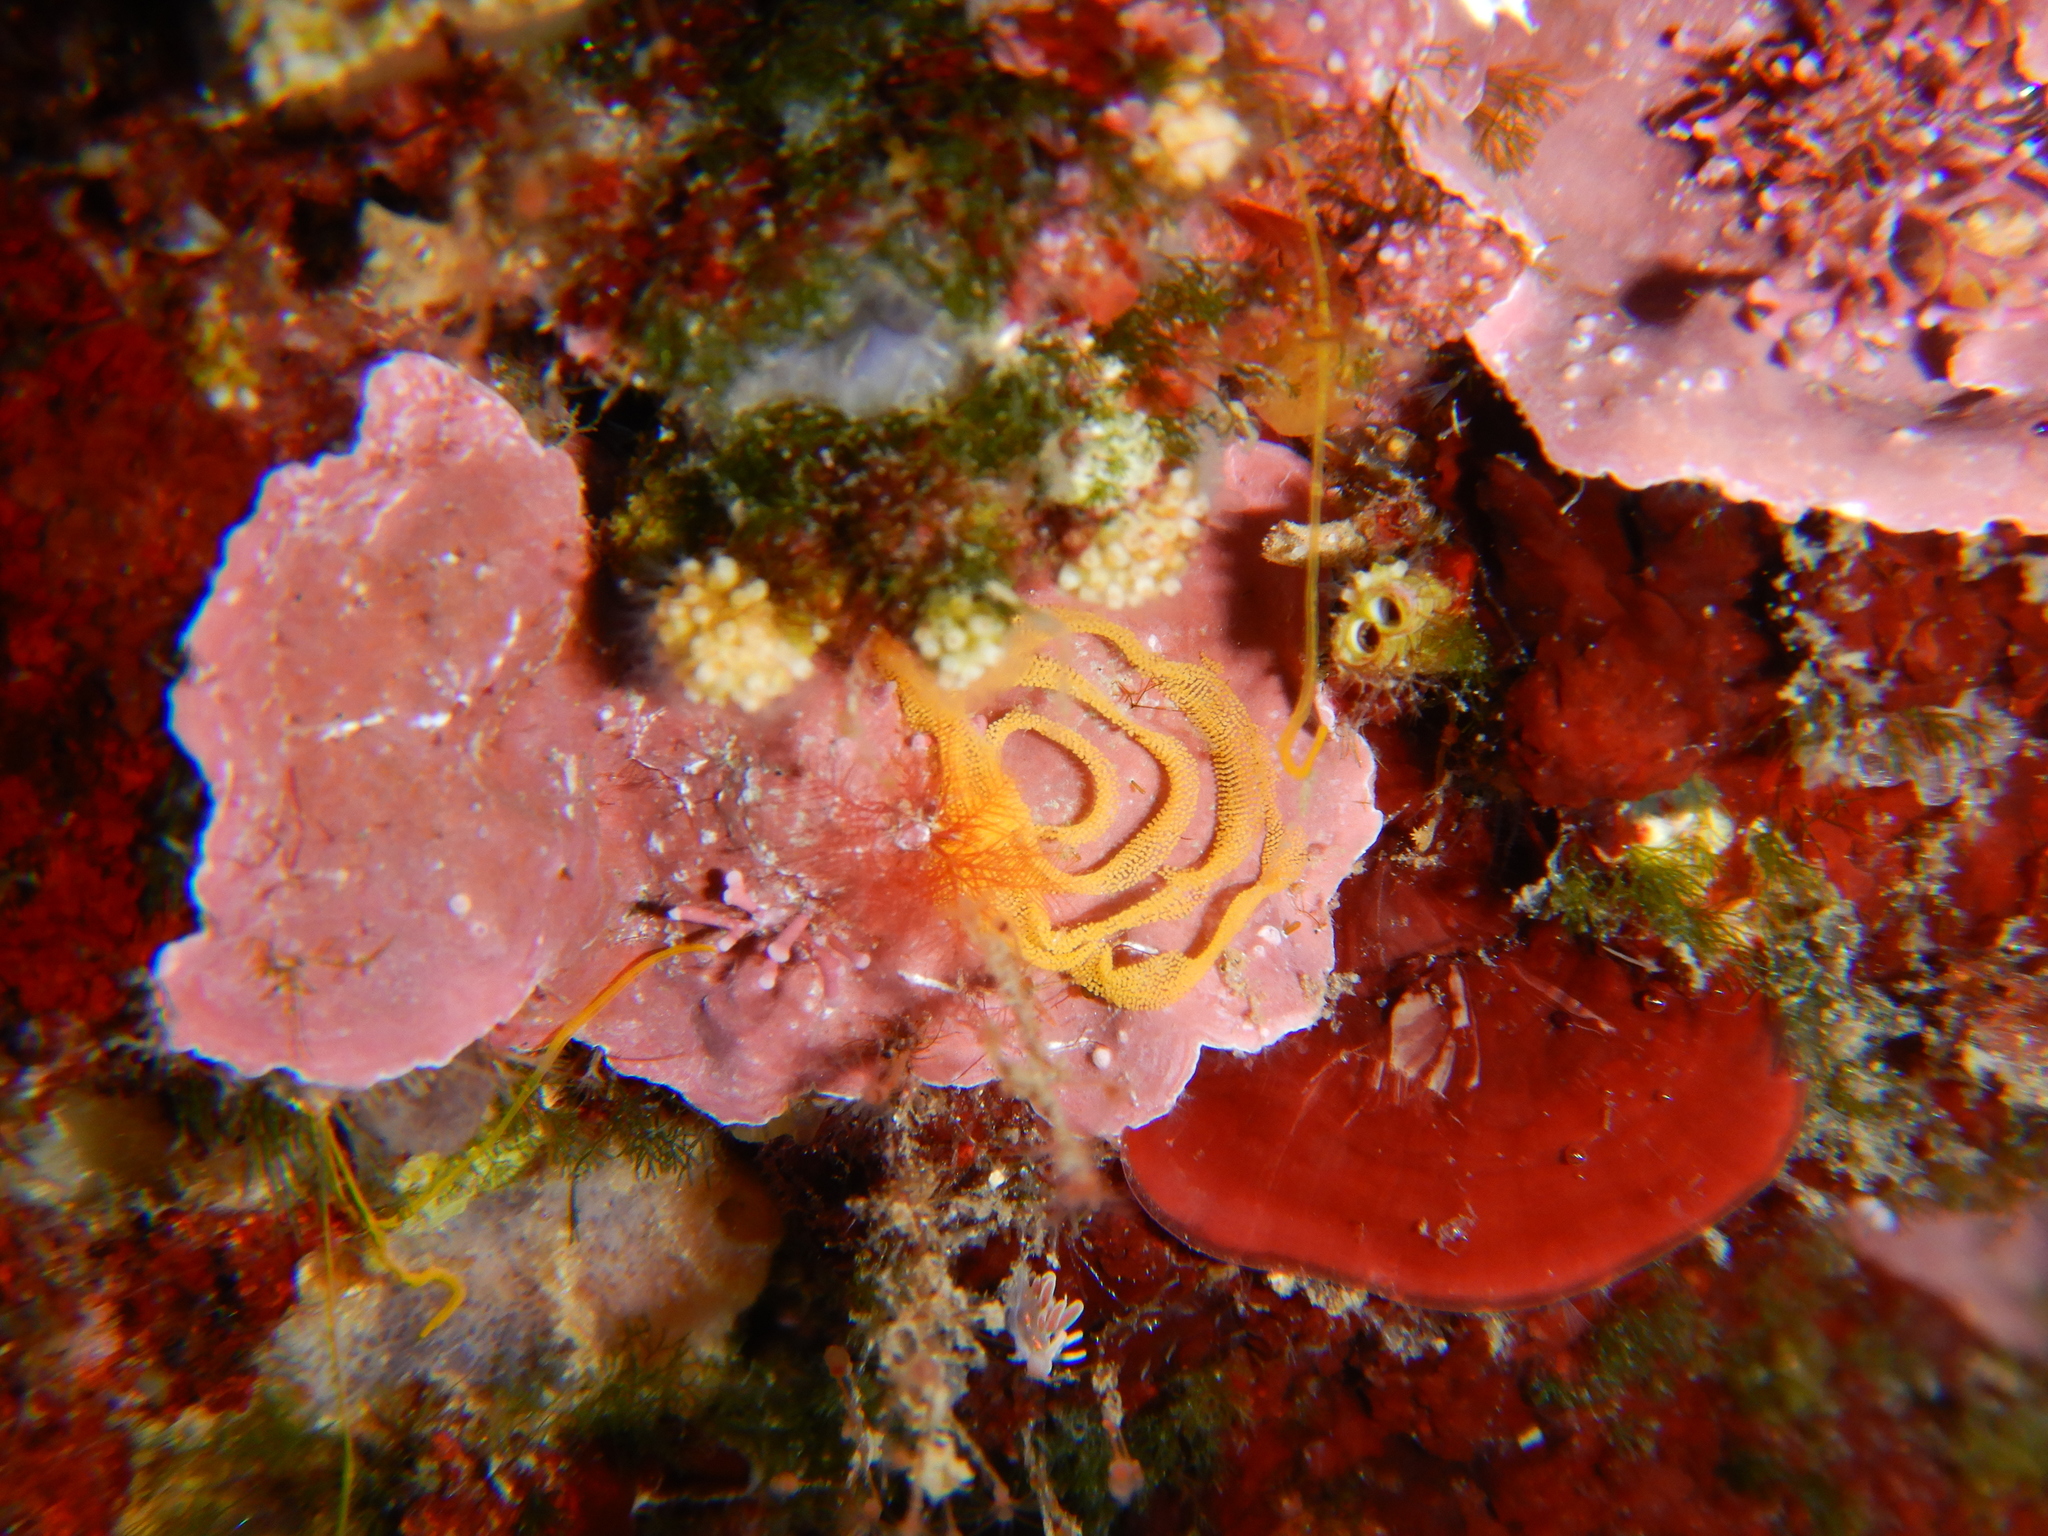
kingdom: Animalia
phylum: Mollusca
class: Gastropoda
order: Nudibranchia
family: Facelinidae
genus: Facelina
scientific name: Facelina rubrovittata
